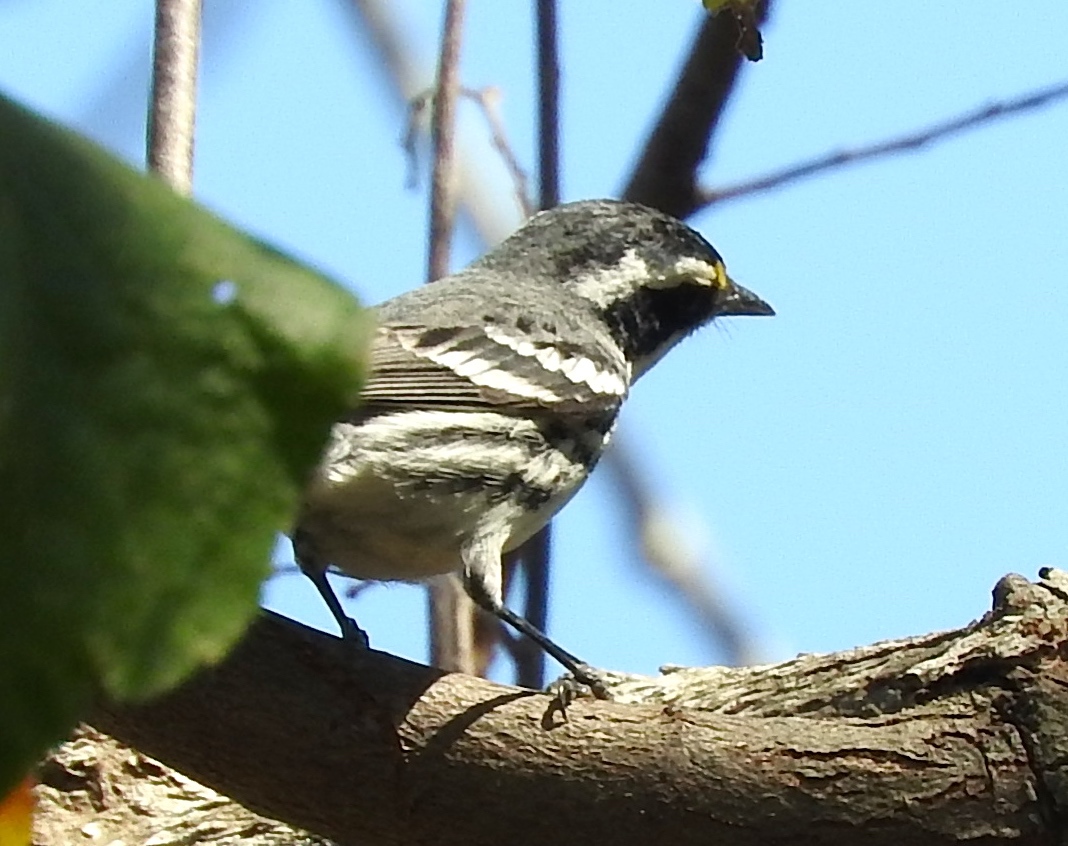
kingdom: Animalia
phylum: Chordata
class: Aves
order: Passeriformes
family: Parulidae
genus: Setophaga
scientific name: Setophaga nigrescens
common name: Black-throated gray warbler
